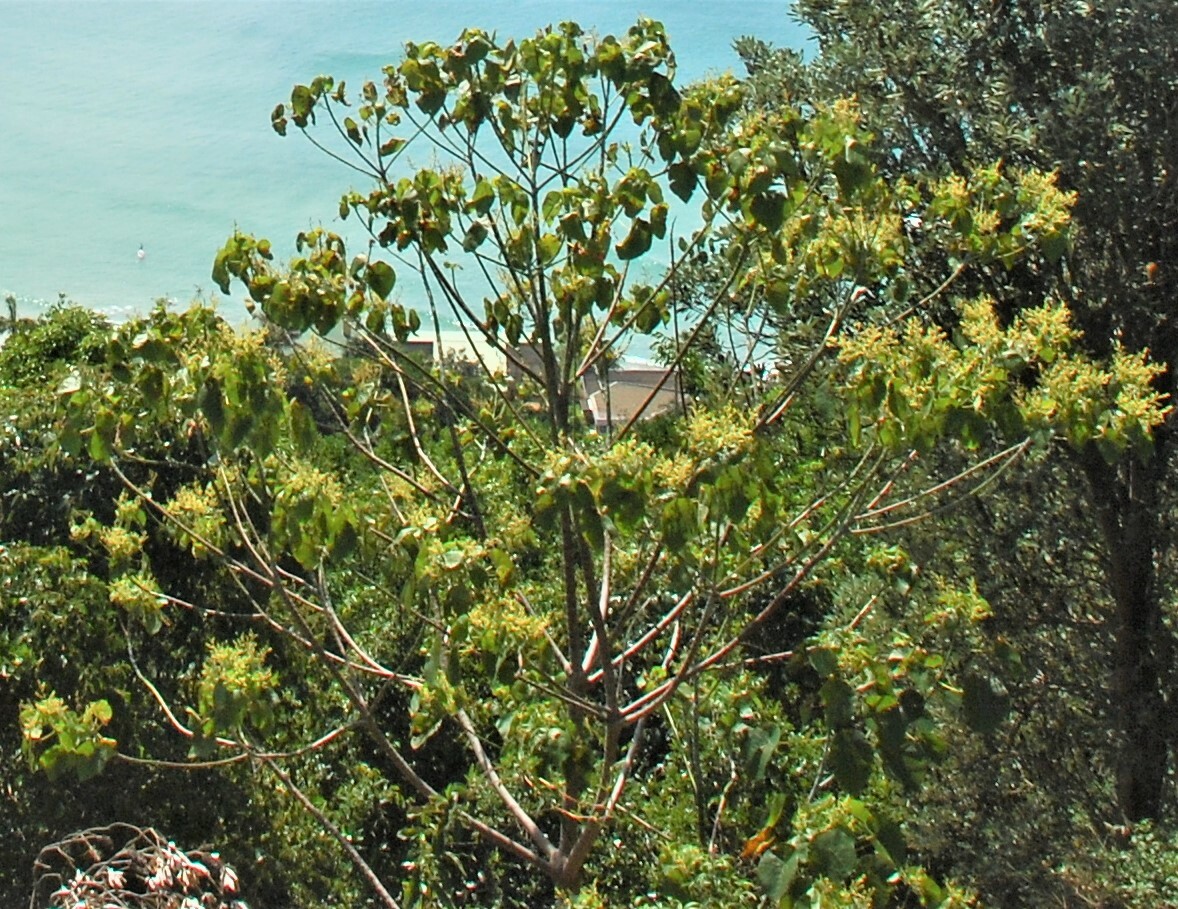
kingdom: Plantae
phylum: Tracheophyta
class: Magnoliopsida
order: Malpighiales
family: Euphorbiaceae
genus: Macaranga
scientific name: Macaranga tanarius
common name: Parasol leaf tree
